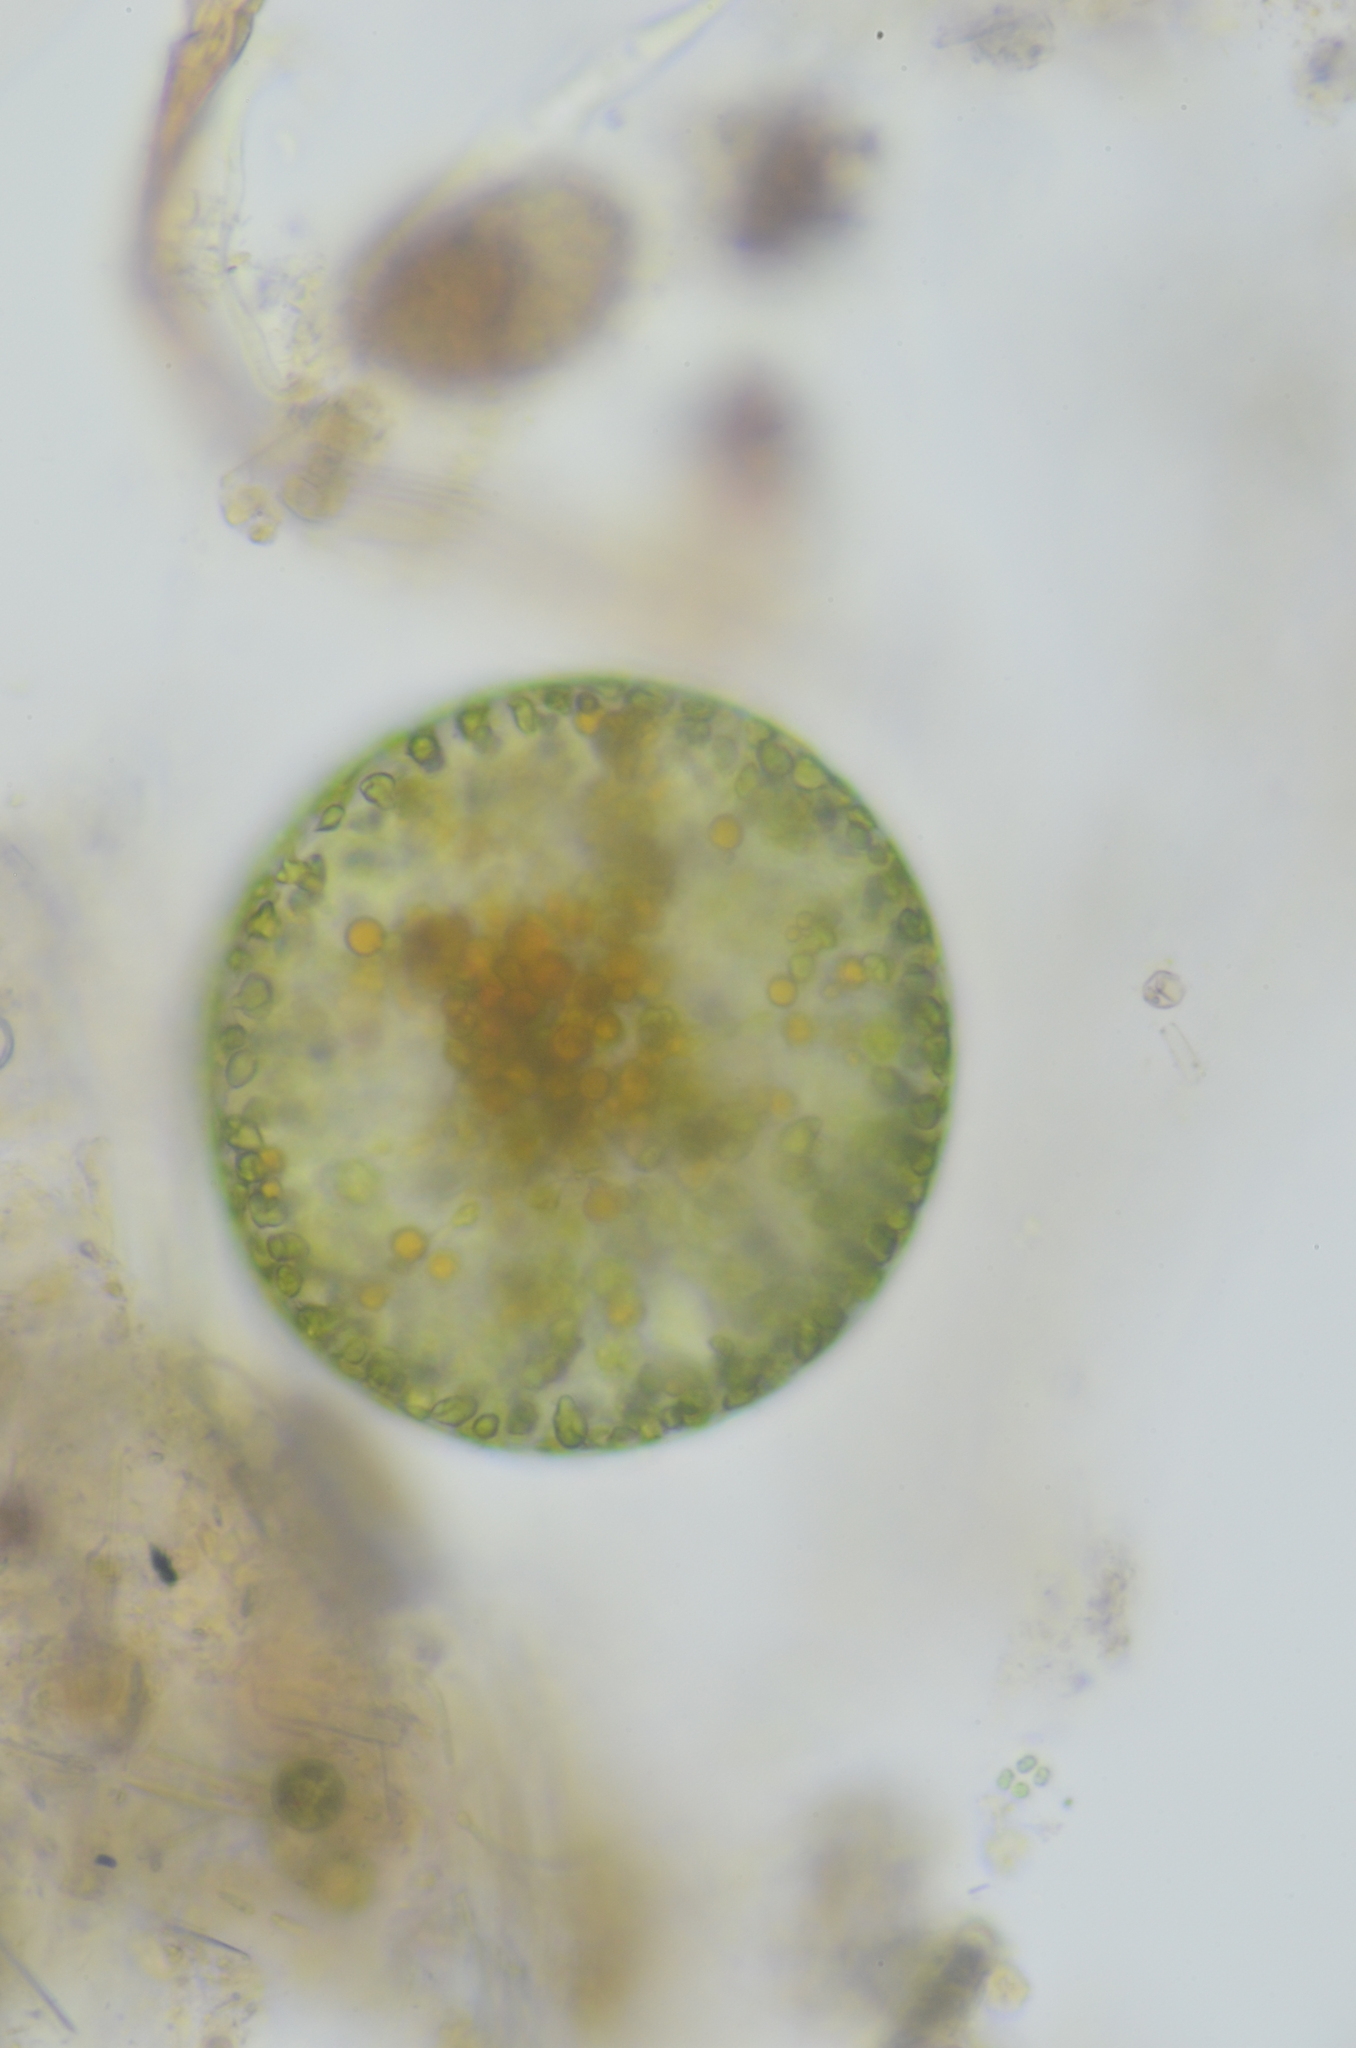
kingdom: Plantae
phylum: Chlorophyta
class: Trebouxiophyceae
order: Oocystales
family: Oocystaceae
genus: Eremosphaera
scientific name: Eremosphaera viridis
